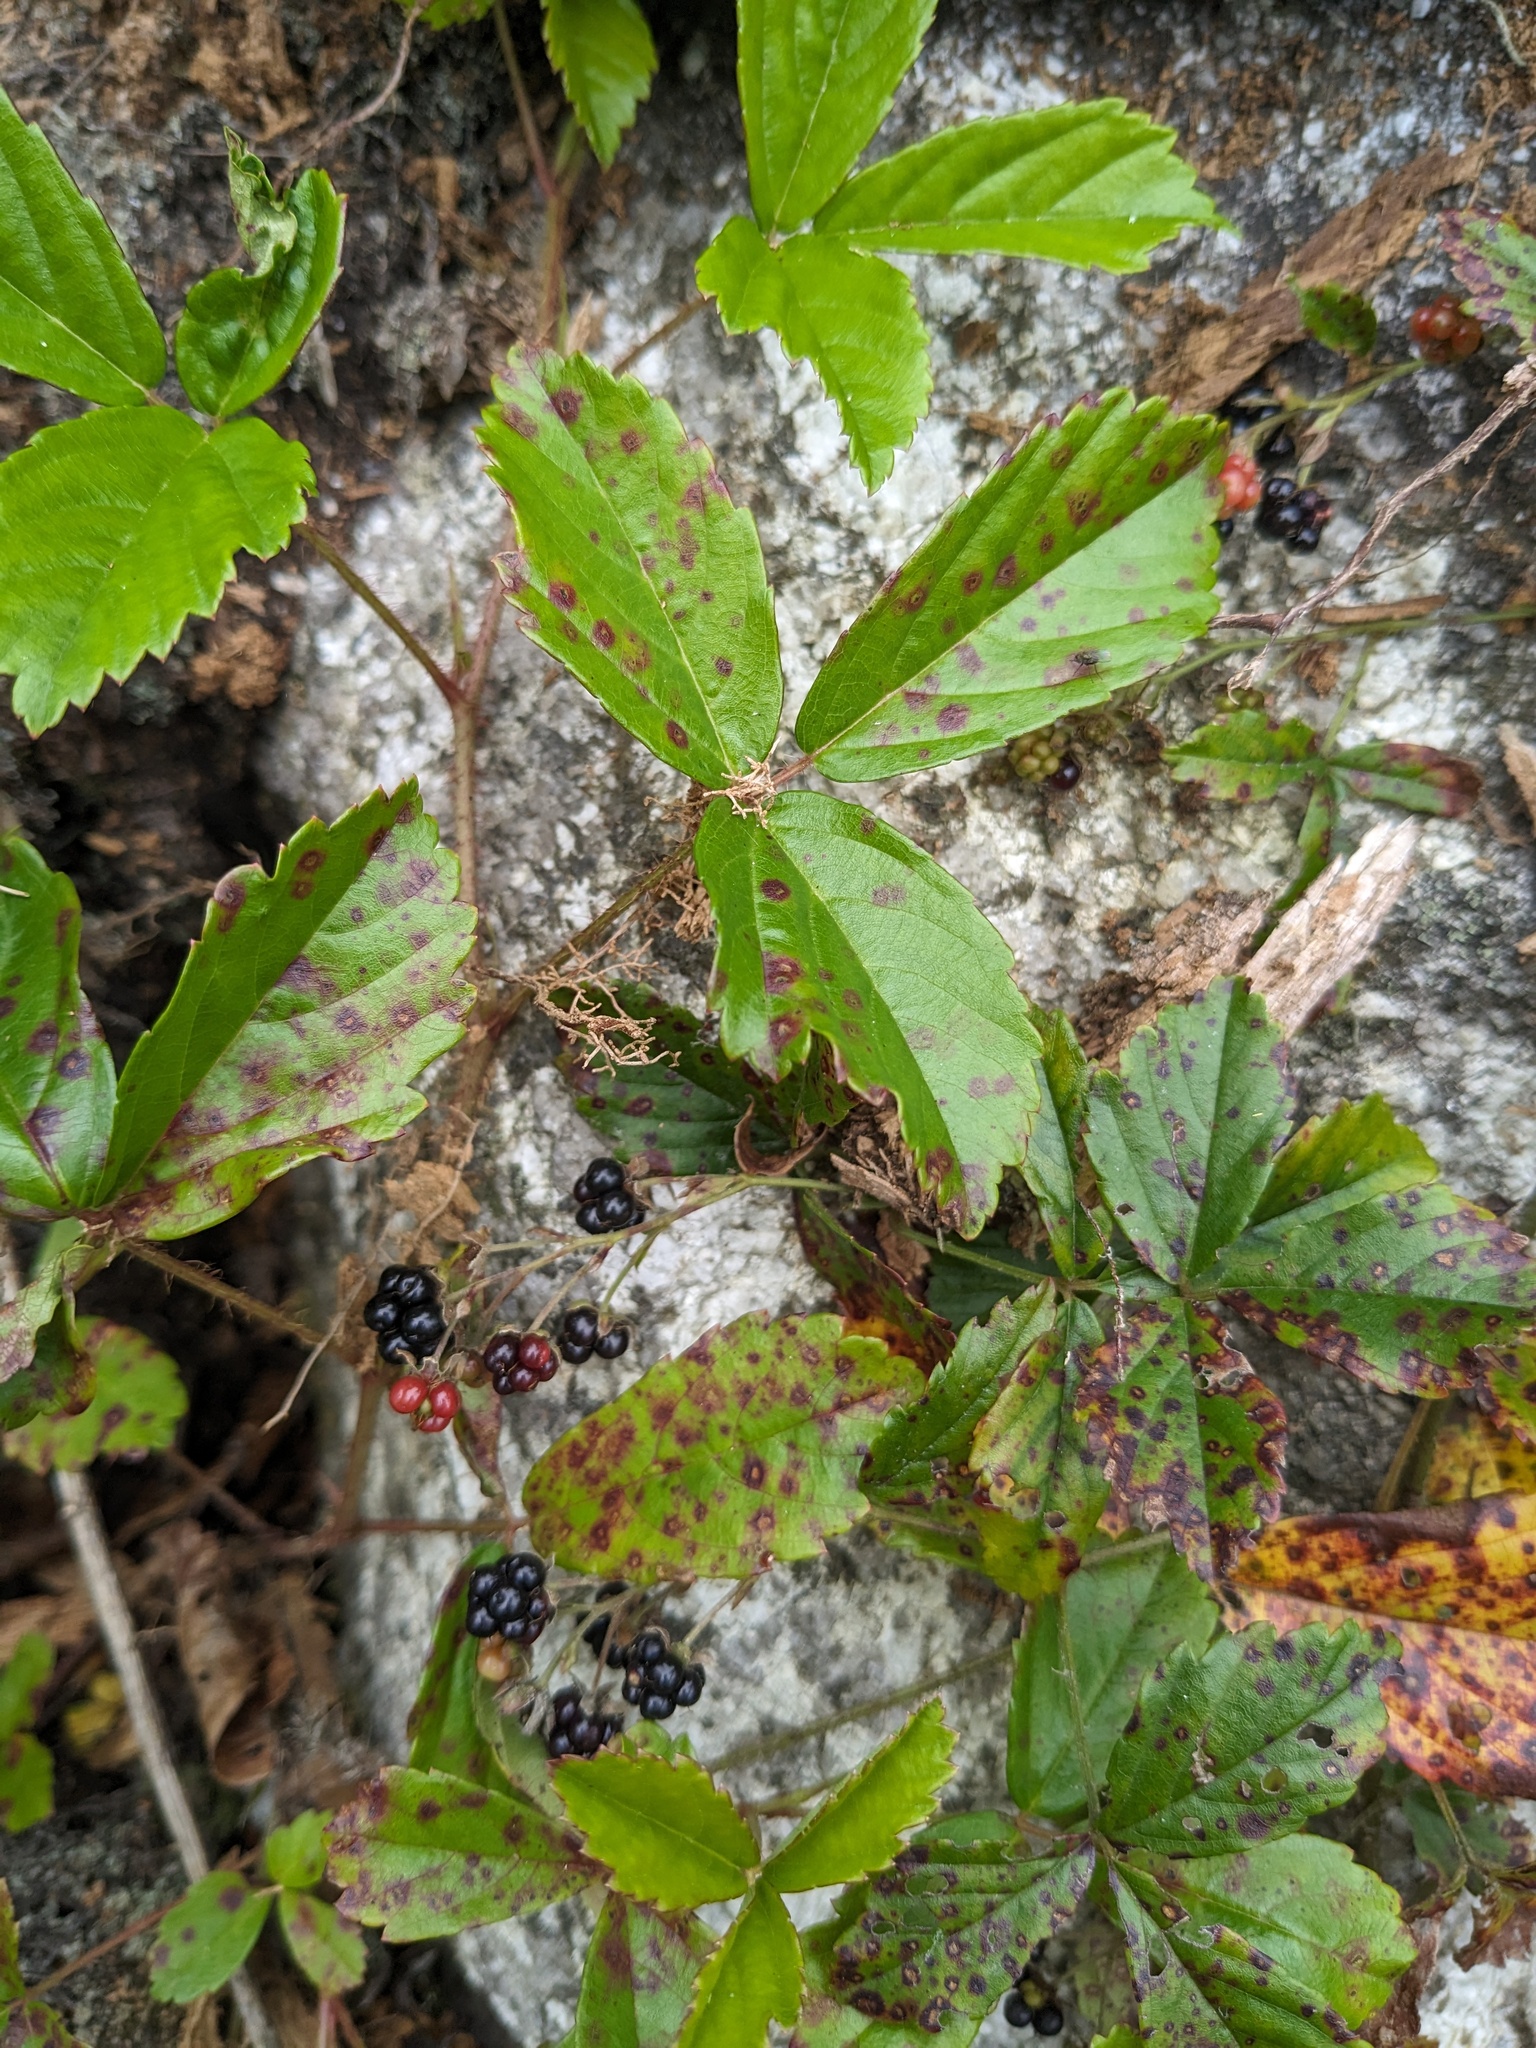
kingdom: Plantae
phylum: Tracheophyta
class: Magnoliopsida
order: Rosales
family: Rosaceae
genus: Rubus
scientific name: Rubus hispidus
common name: Running blackberry
